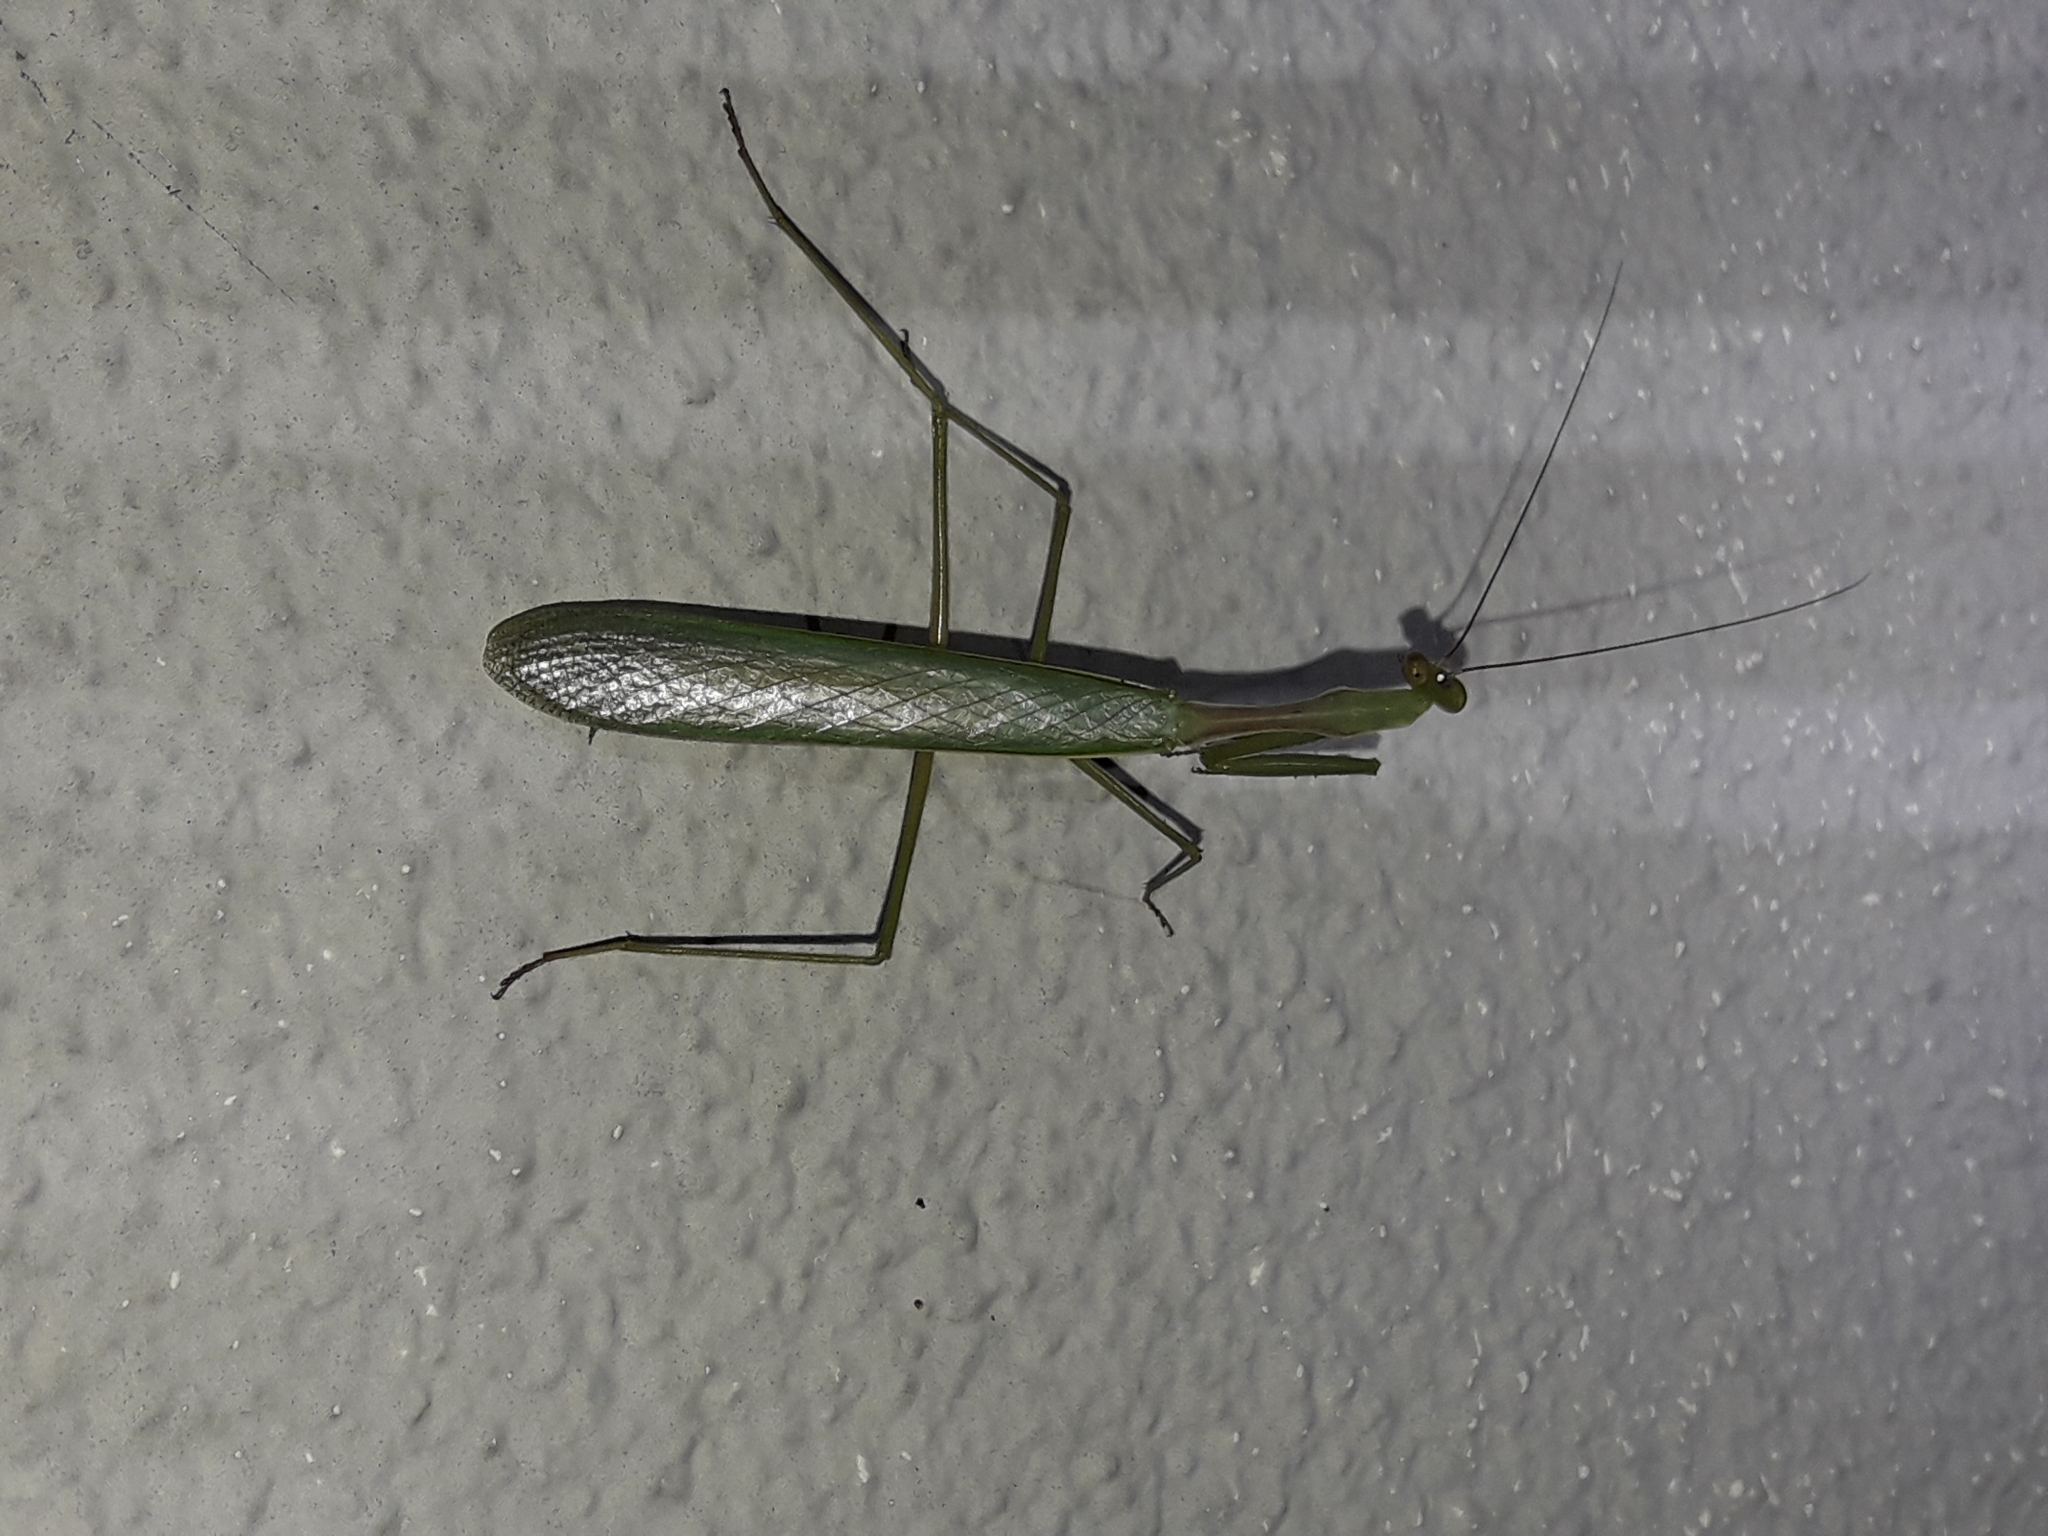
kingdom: Animalia
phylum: Arthropoda
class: Insecta
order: Mantodea
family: Miomantidae
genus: Miomantis
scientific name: Miomantis caffra
